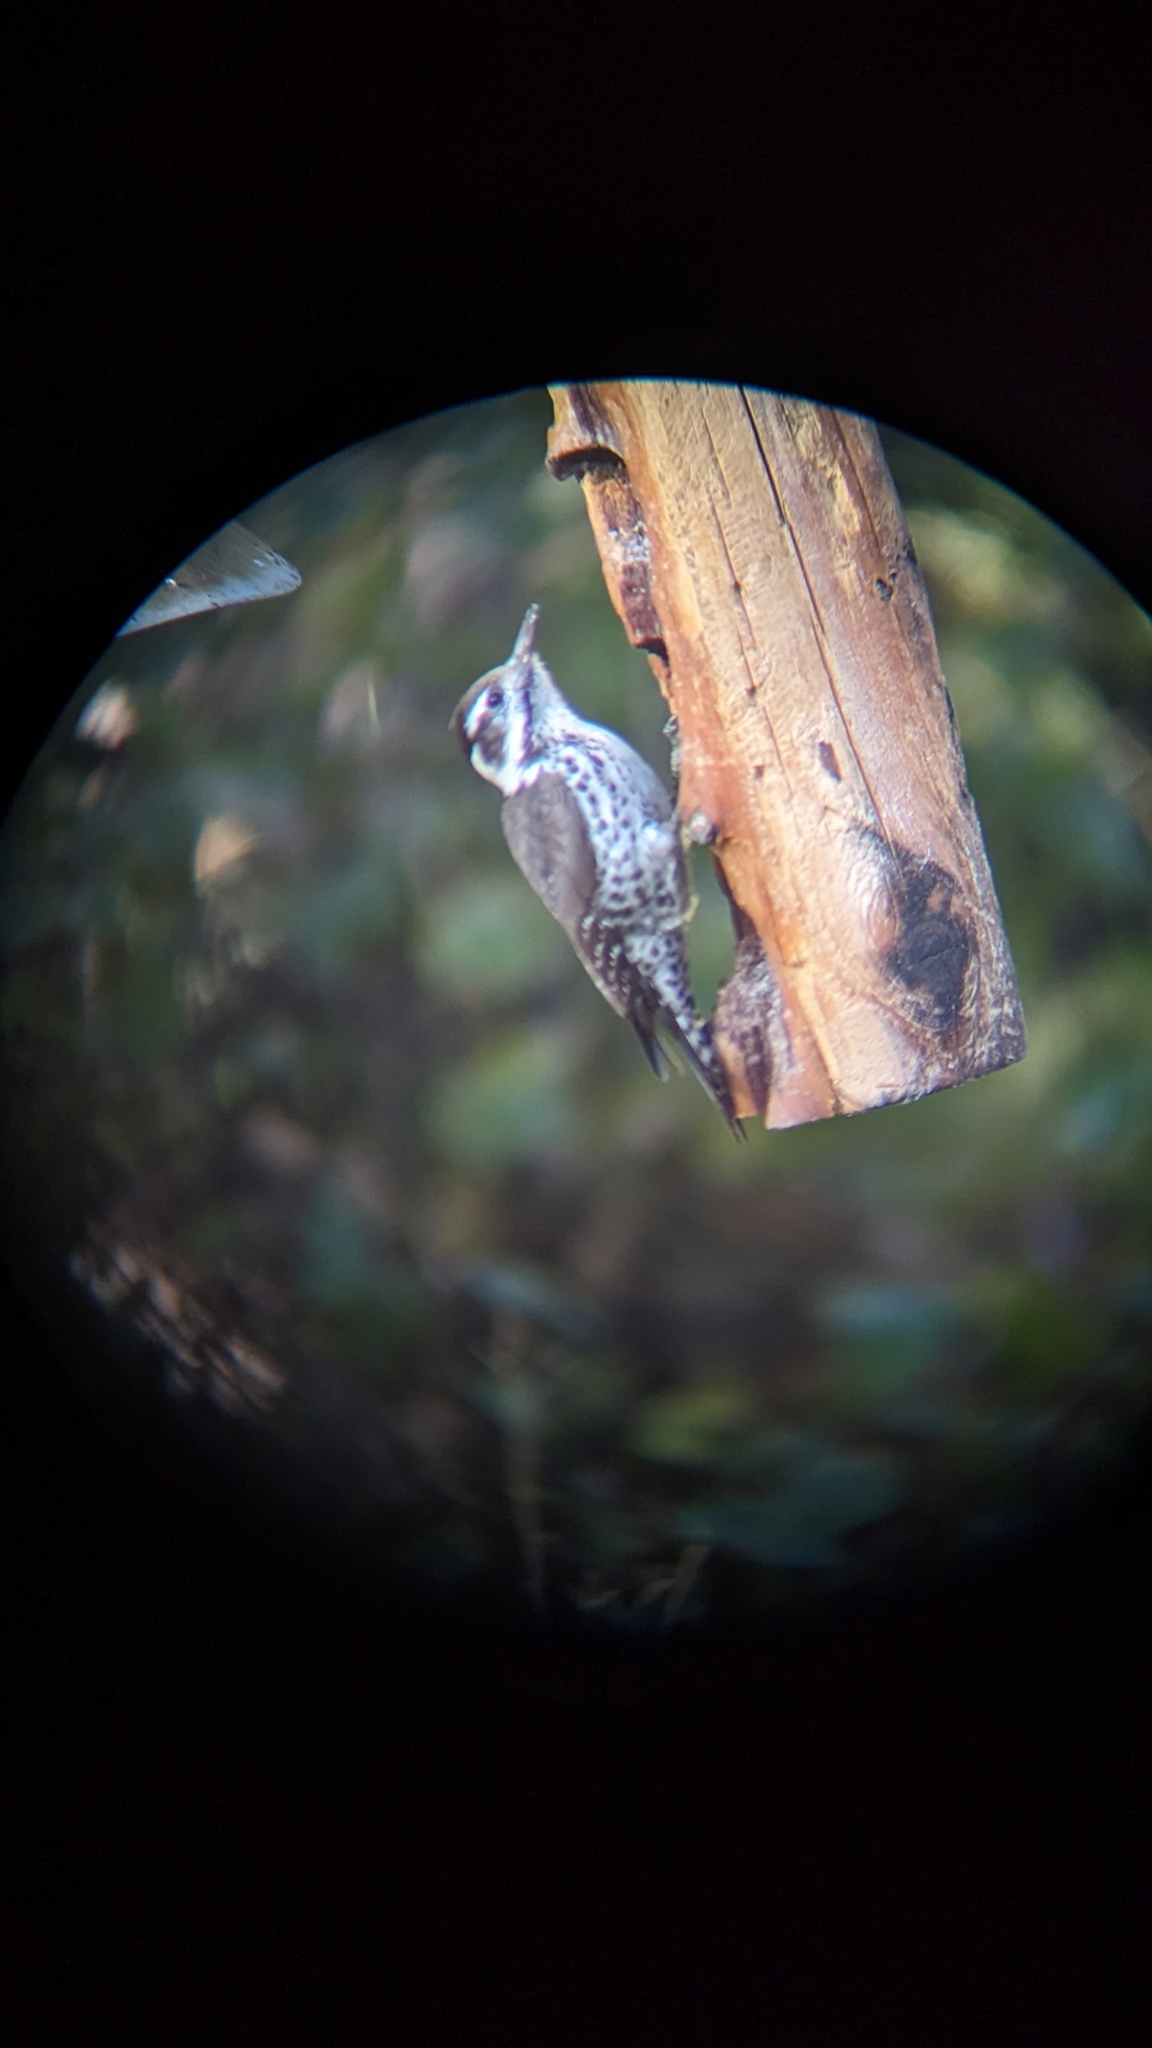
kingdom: Animalia
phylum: Chordata
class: Aves
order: Piciformes
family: Picidae
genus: Leuconotopicus
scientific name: Leuconotopicus arizonae
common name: Arizona woodpecker
